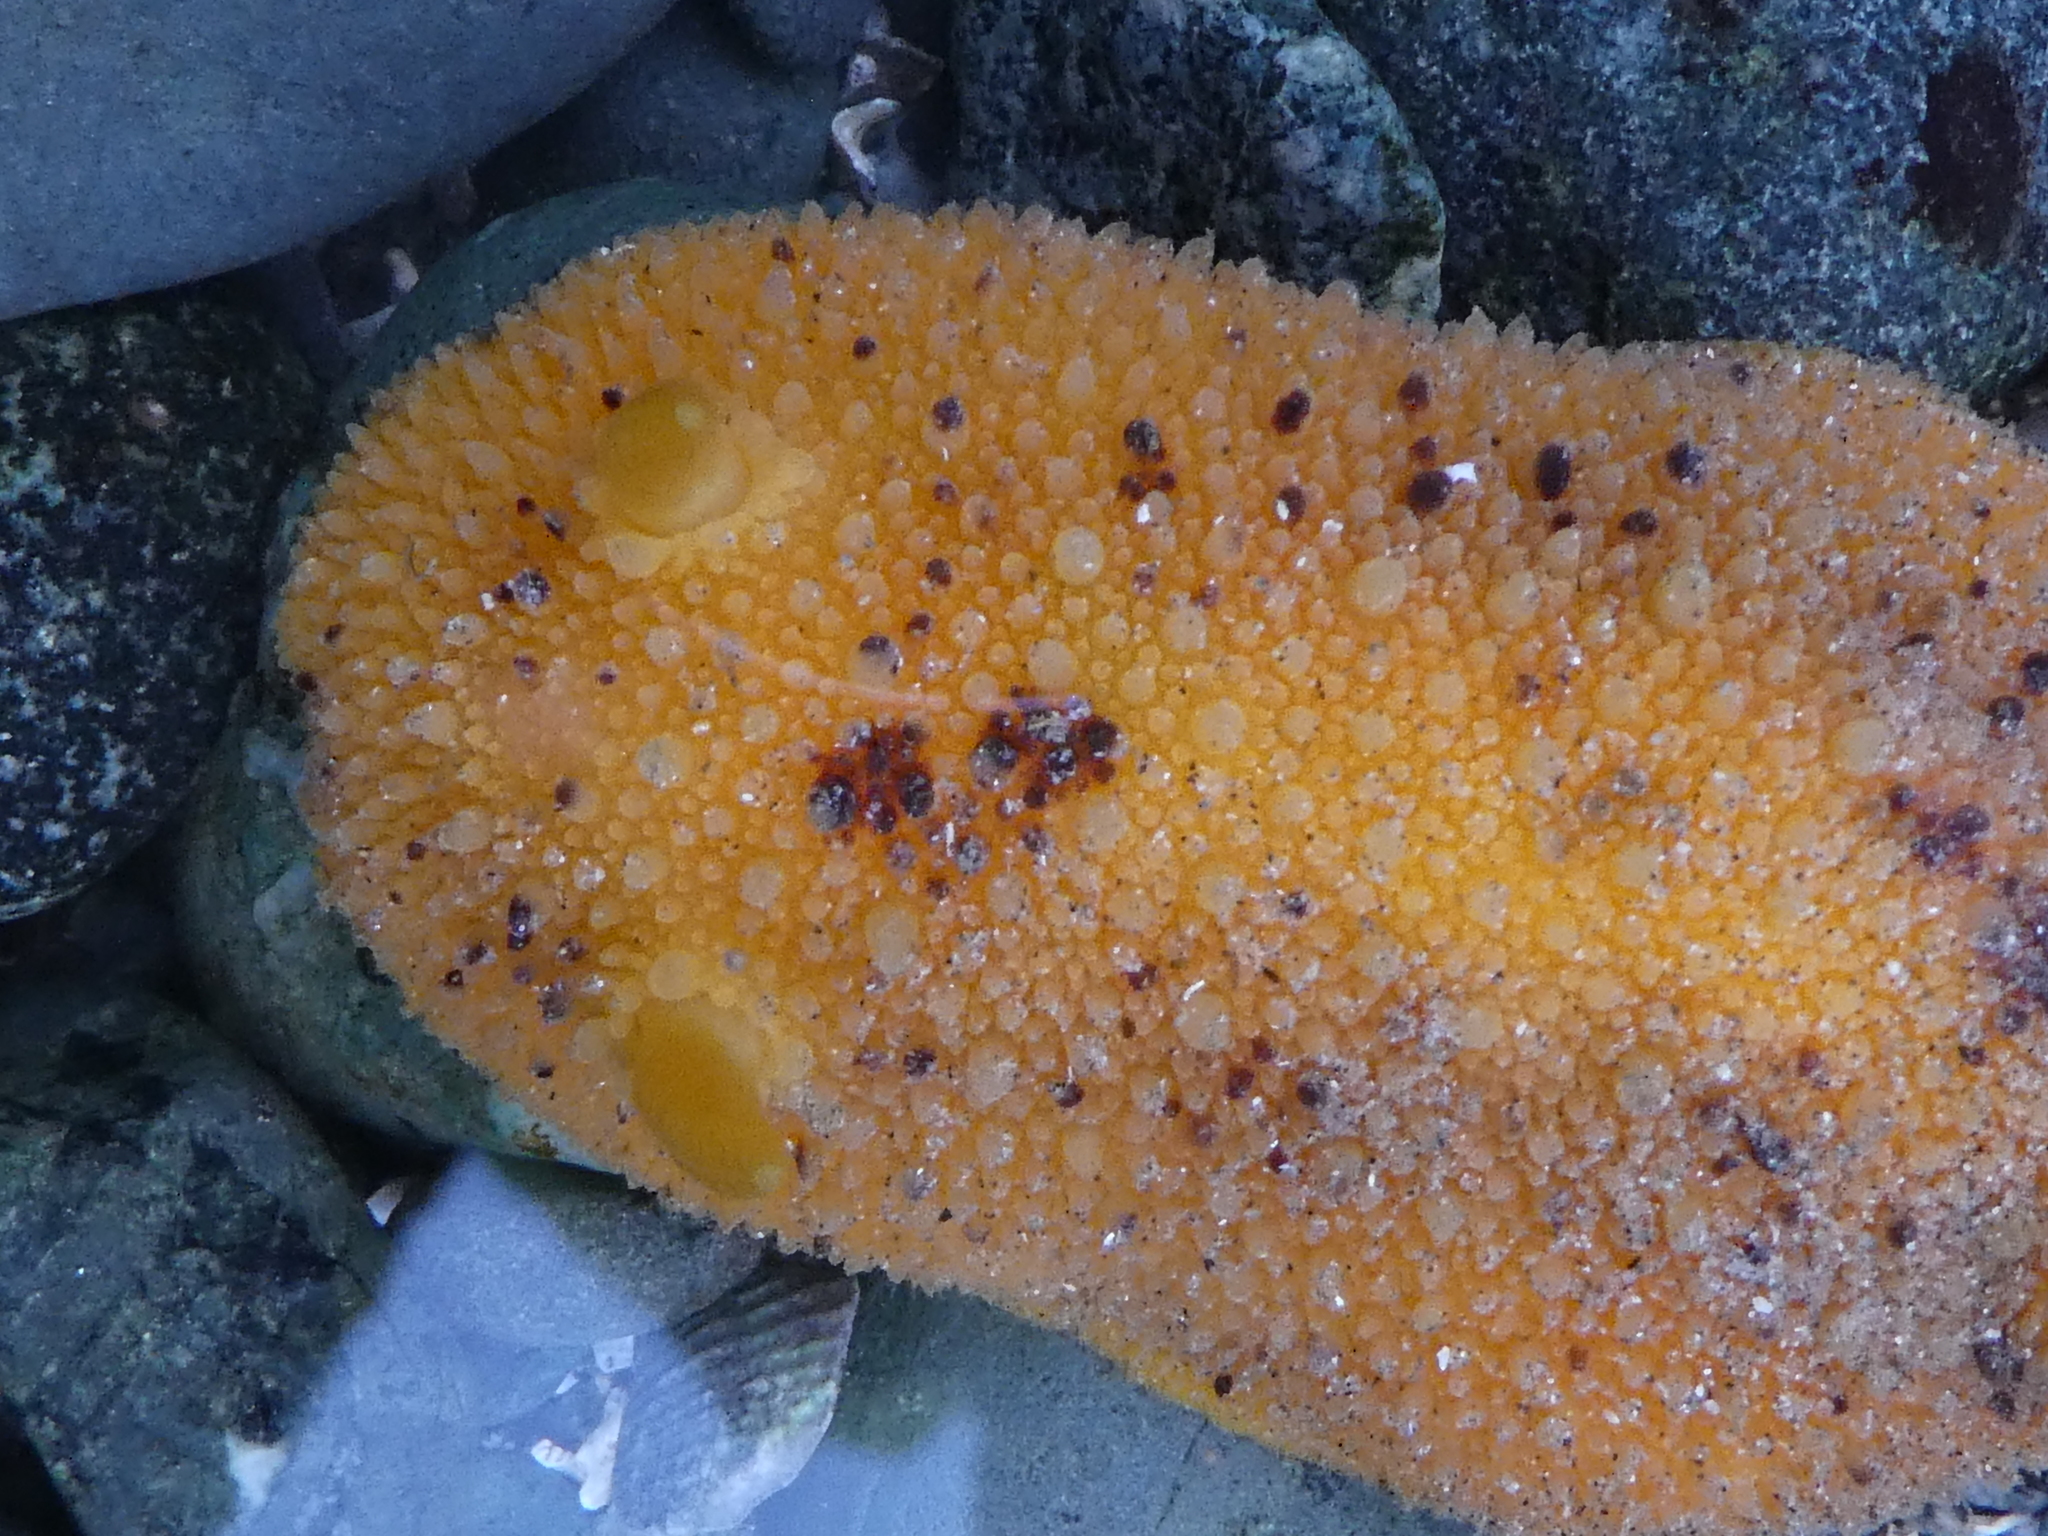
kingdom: Animalia
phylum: Mollusca
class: Gastropoda
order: Nudibranchia
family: Dorididae
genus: Doris
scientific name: Doris montereyensis
